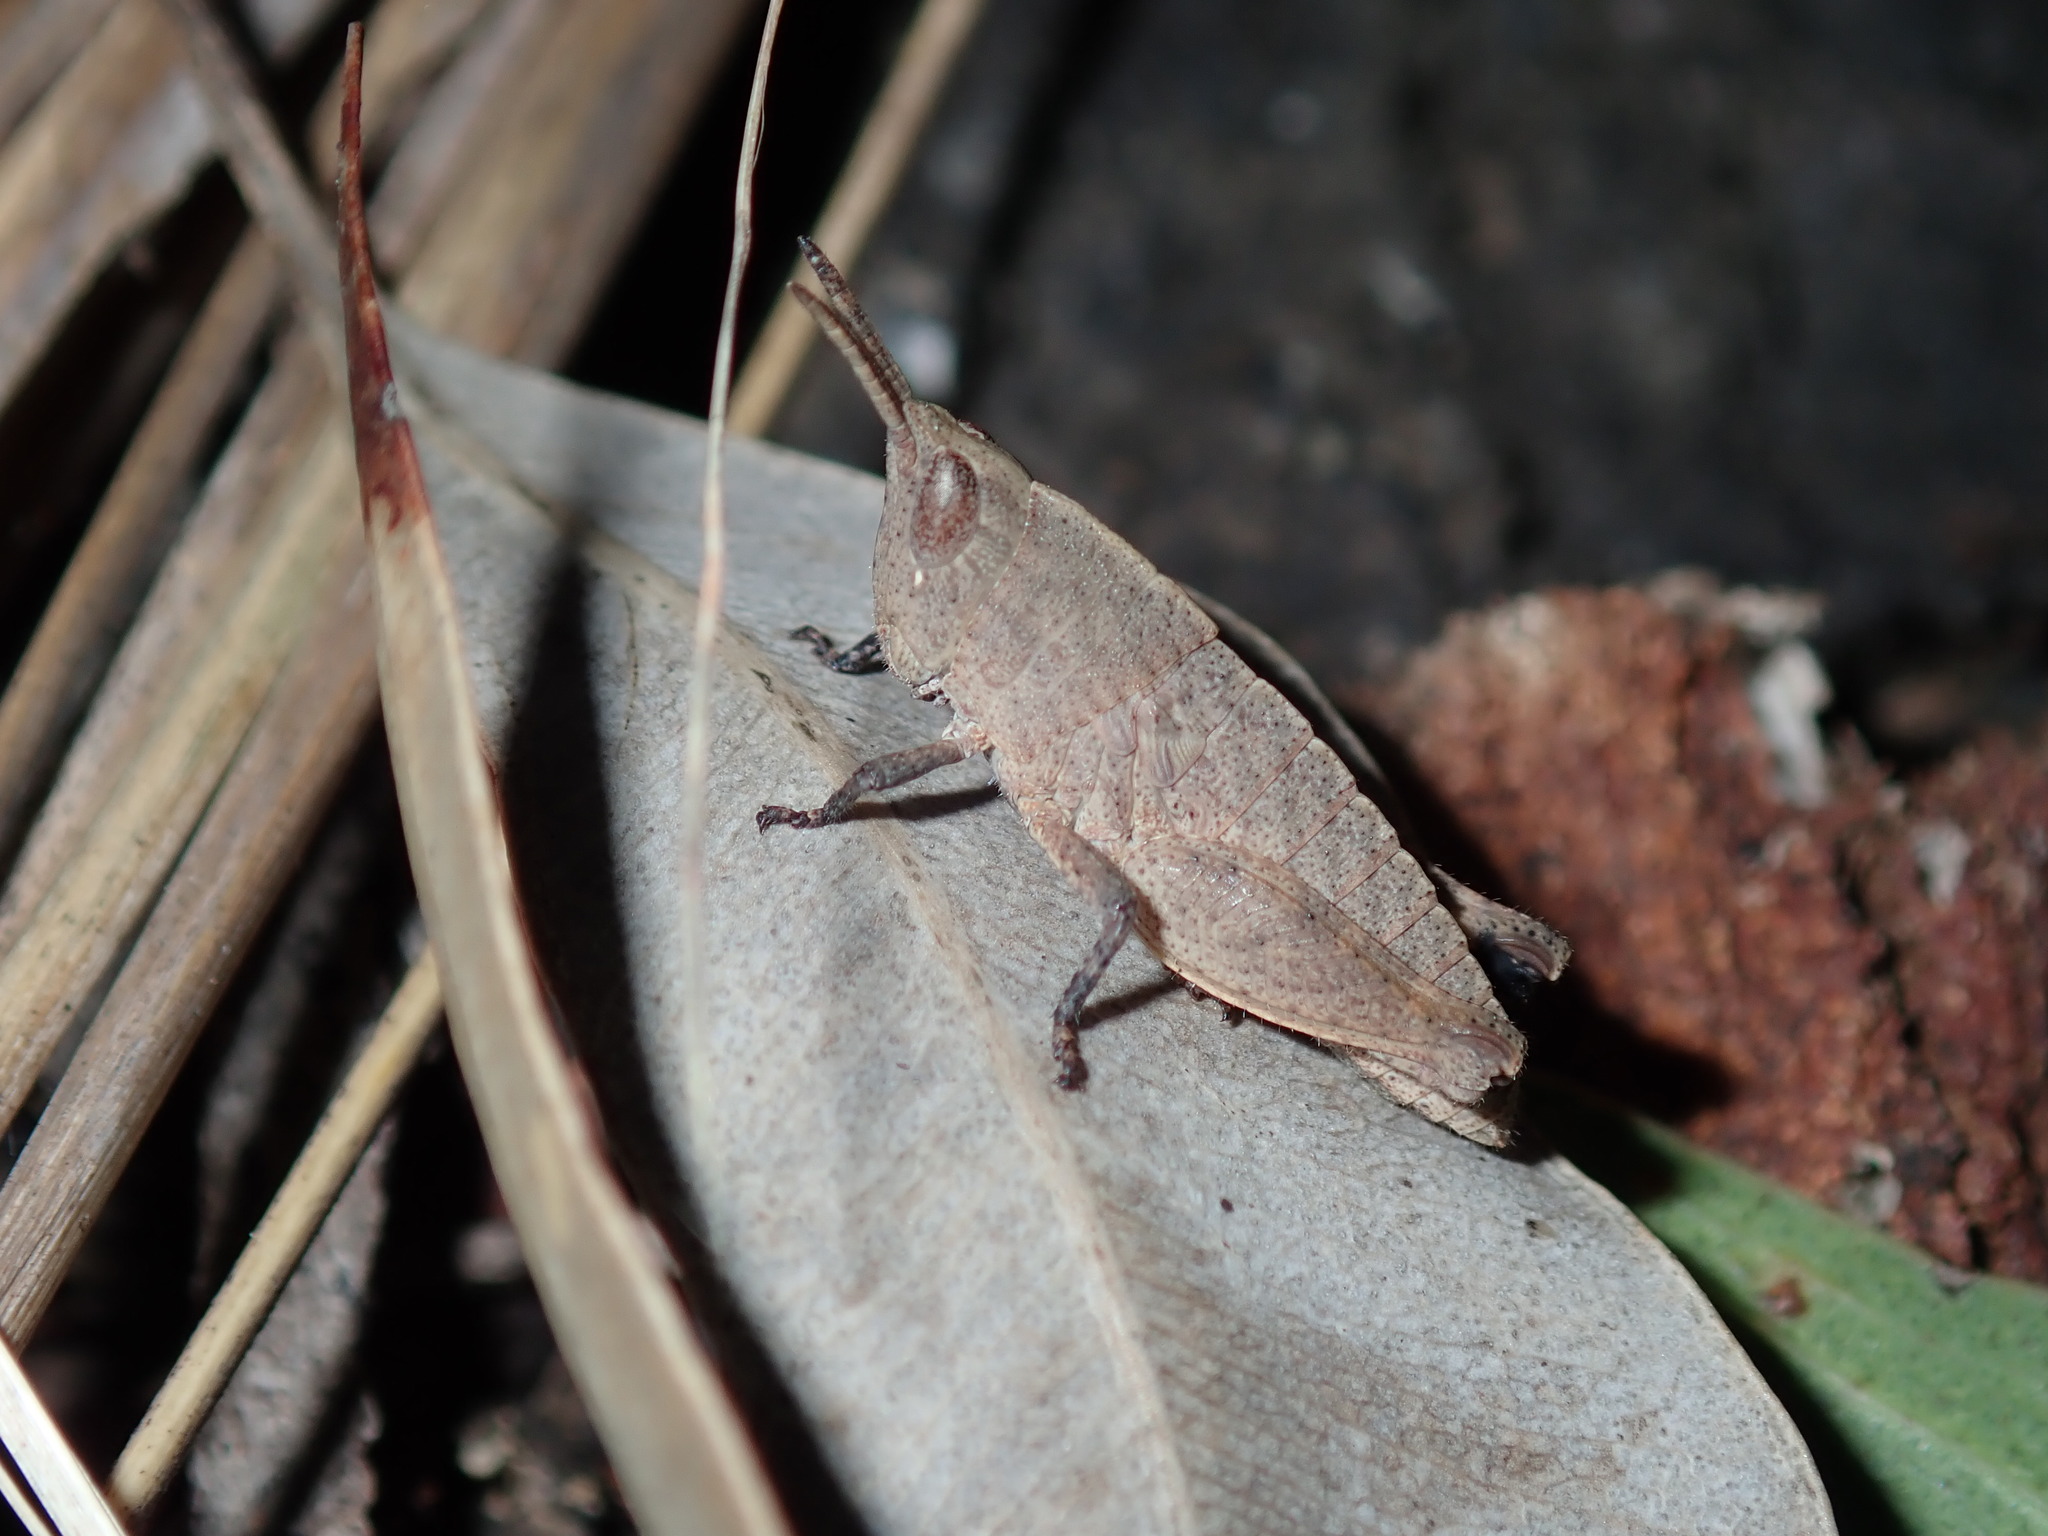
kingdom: Animalia
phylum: Arthropoda
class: Insecta
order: Orthoptera
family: Acrididae
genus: Goniaea
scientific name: Goniaea opomaloides
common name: Mimetic gumleaf grasshopper
